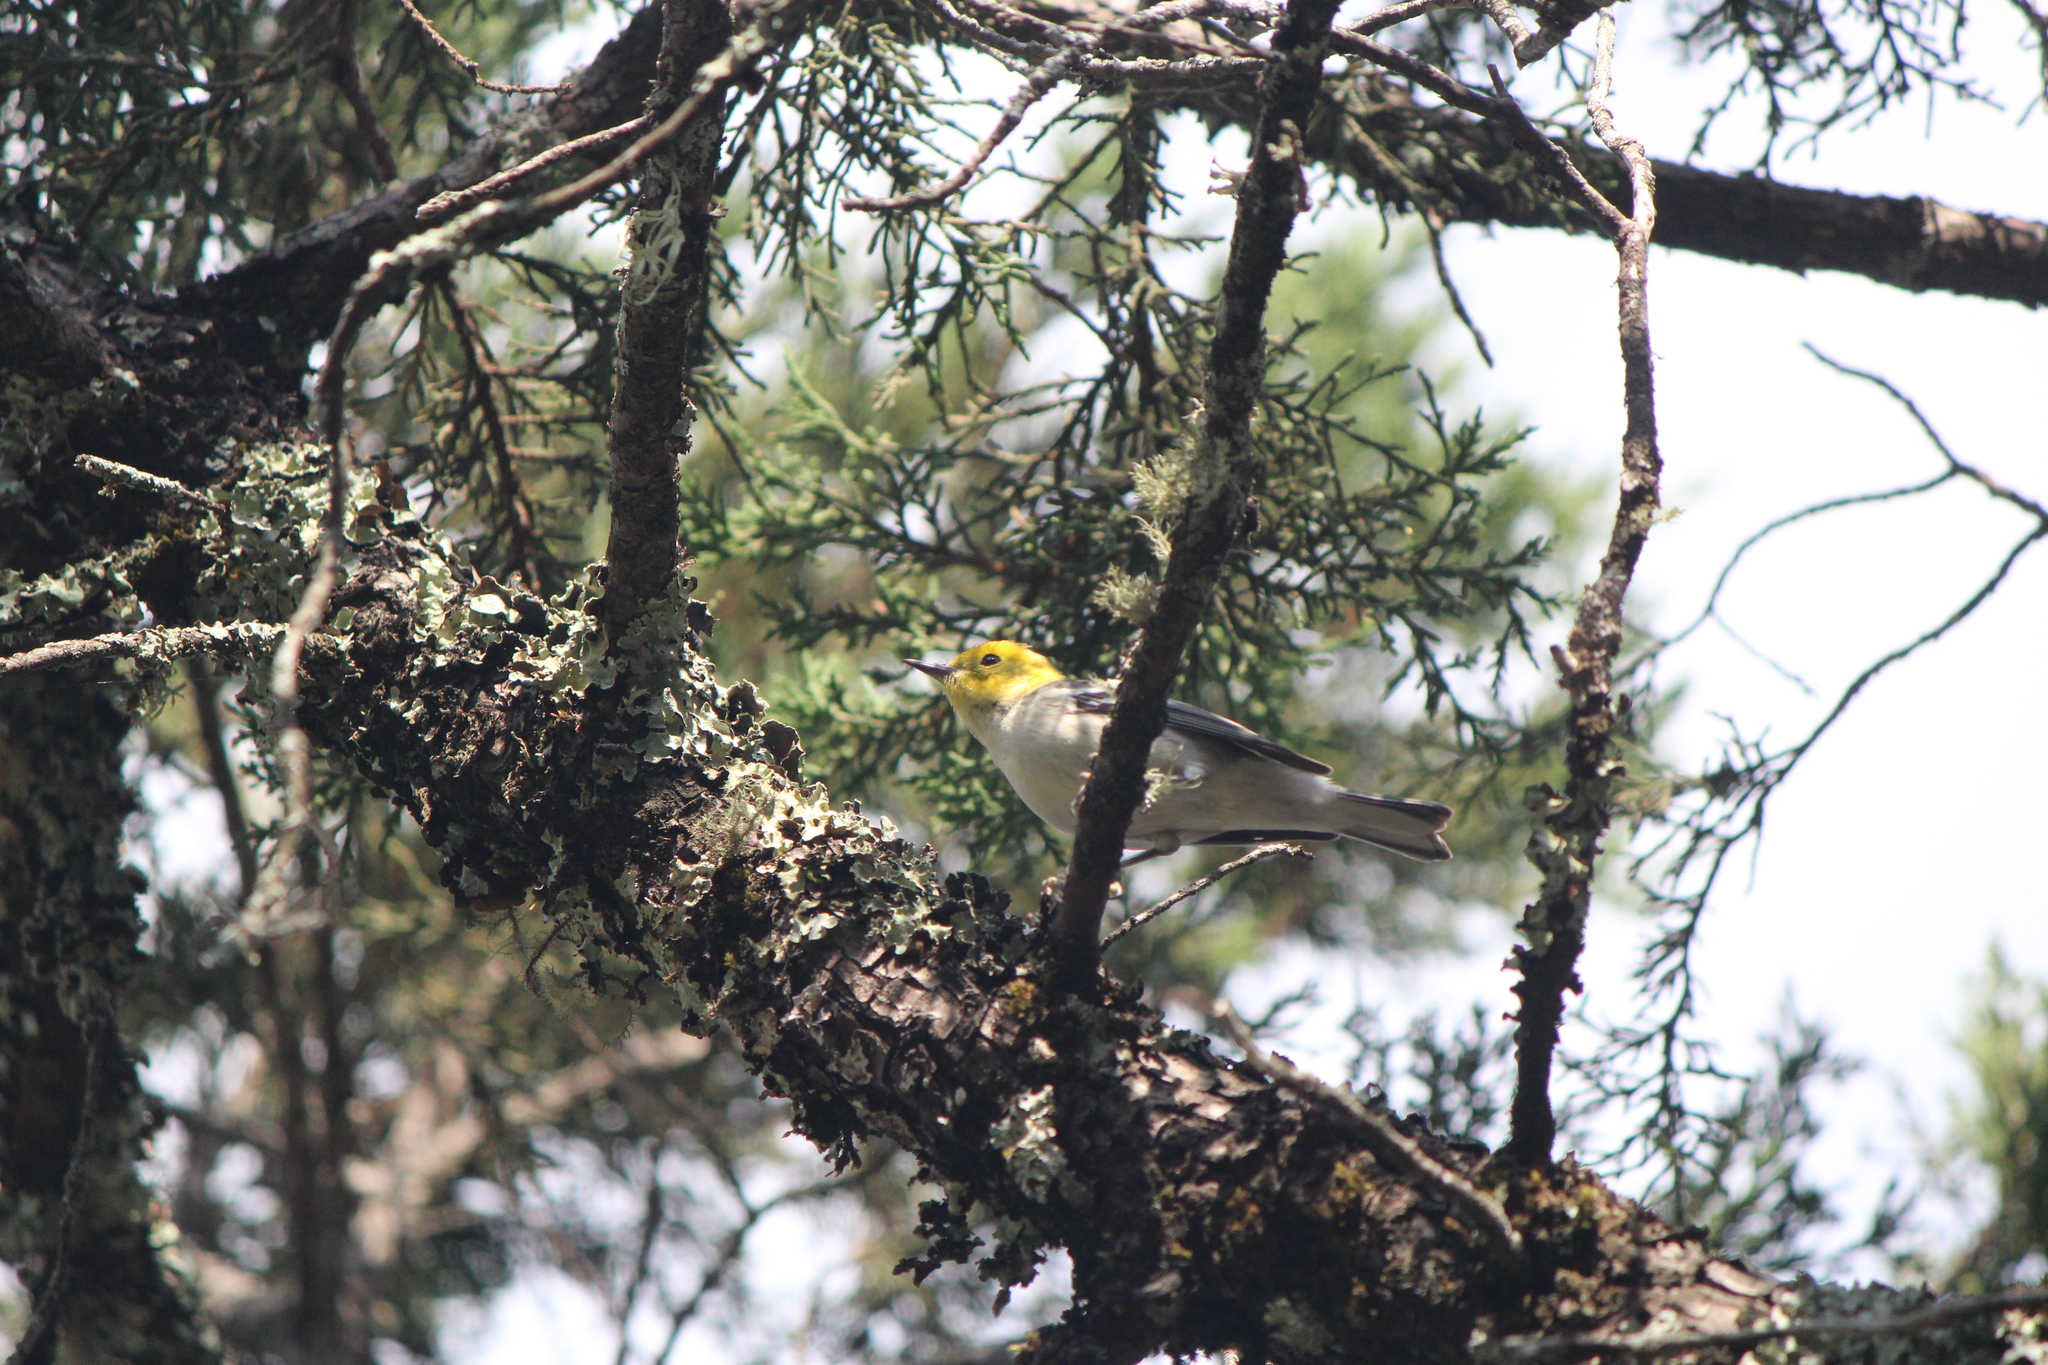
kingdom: Animalia
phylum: Chordata
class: Aves
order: Passeriformes
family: Parulidae
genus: Setophaga
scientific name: Setophaga occidentalis
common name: Hermit warbler
